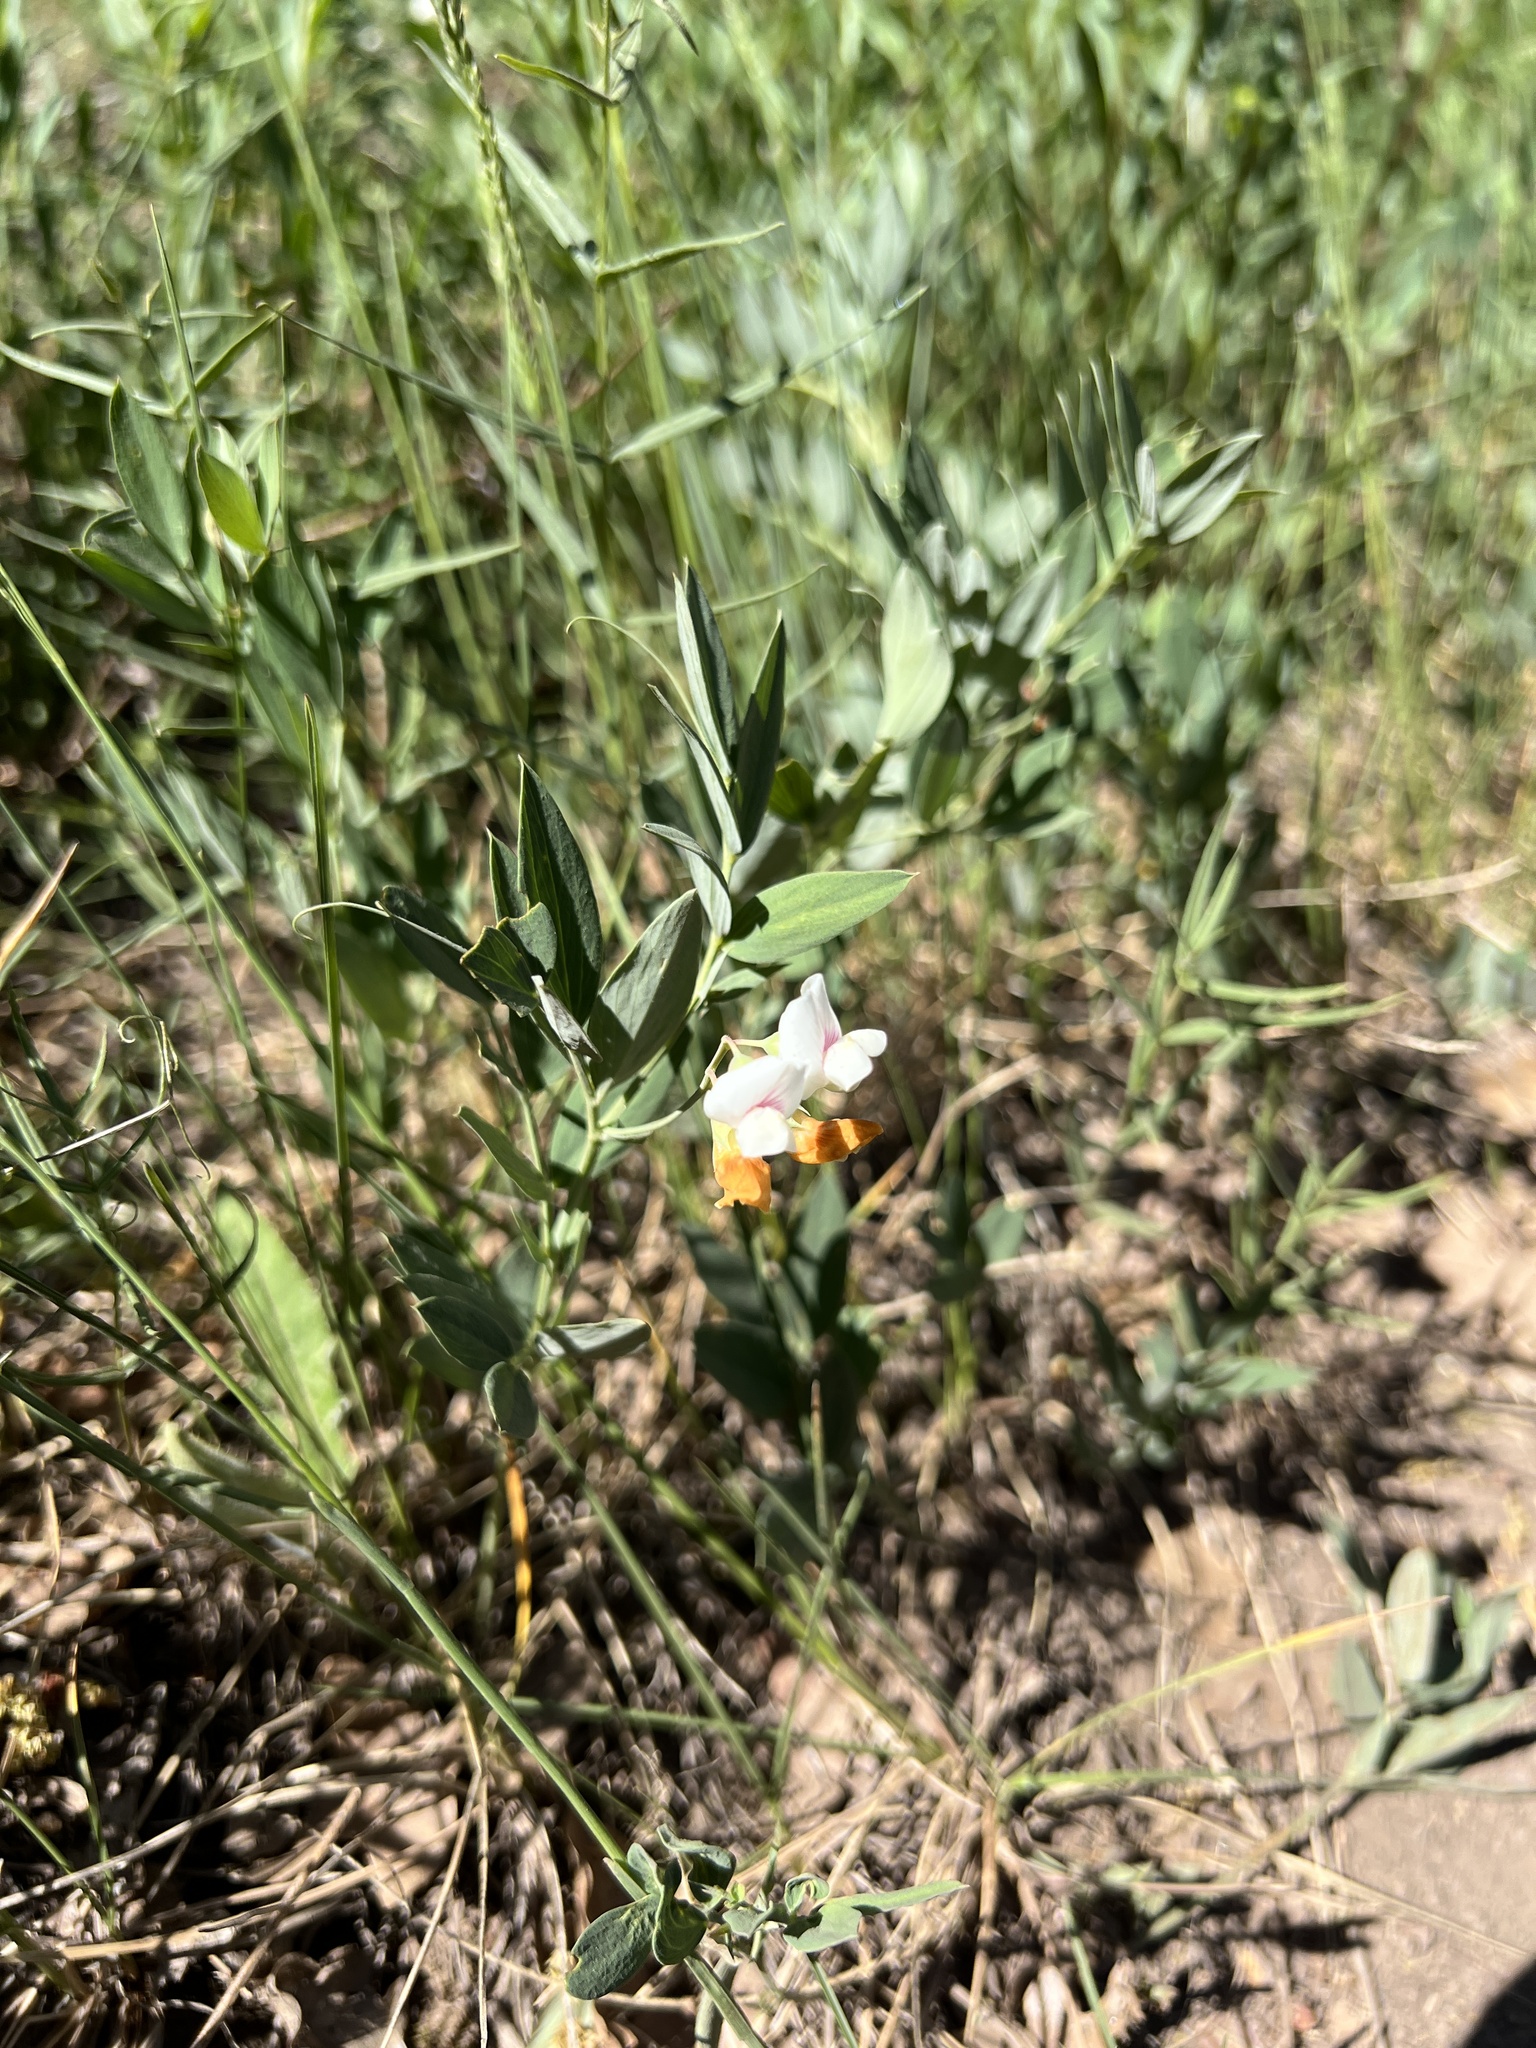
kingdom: Plantae
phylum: Tracheophyta
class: Magnoliopsida
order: Fabales
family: Fabaceae
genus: Lathyrus
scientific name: Lathyrus lanszwertii
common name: Lanszwert's vetchling
